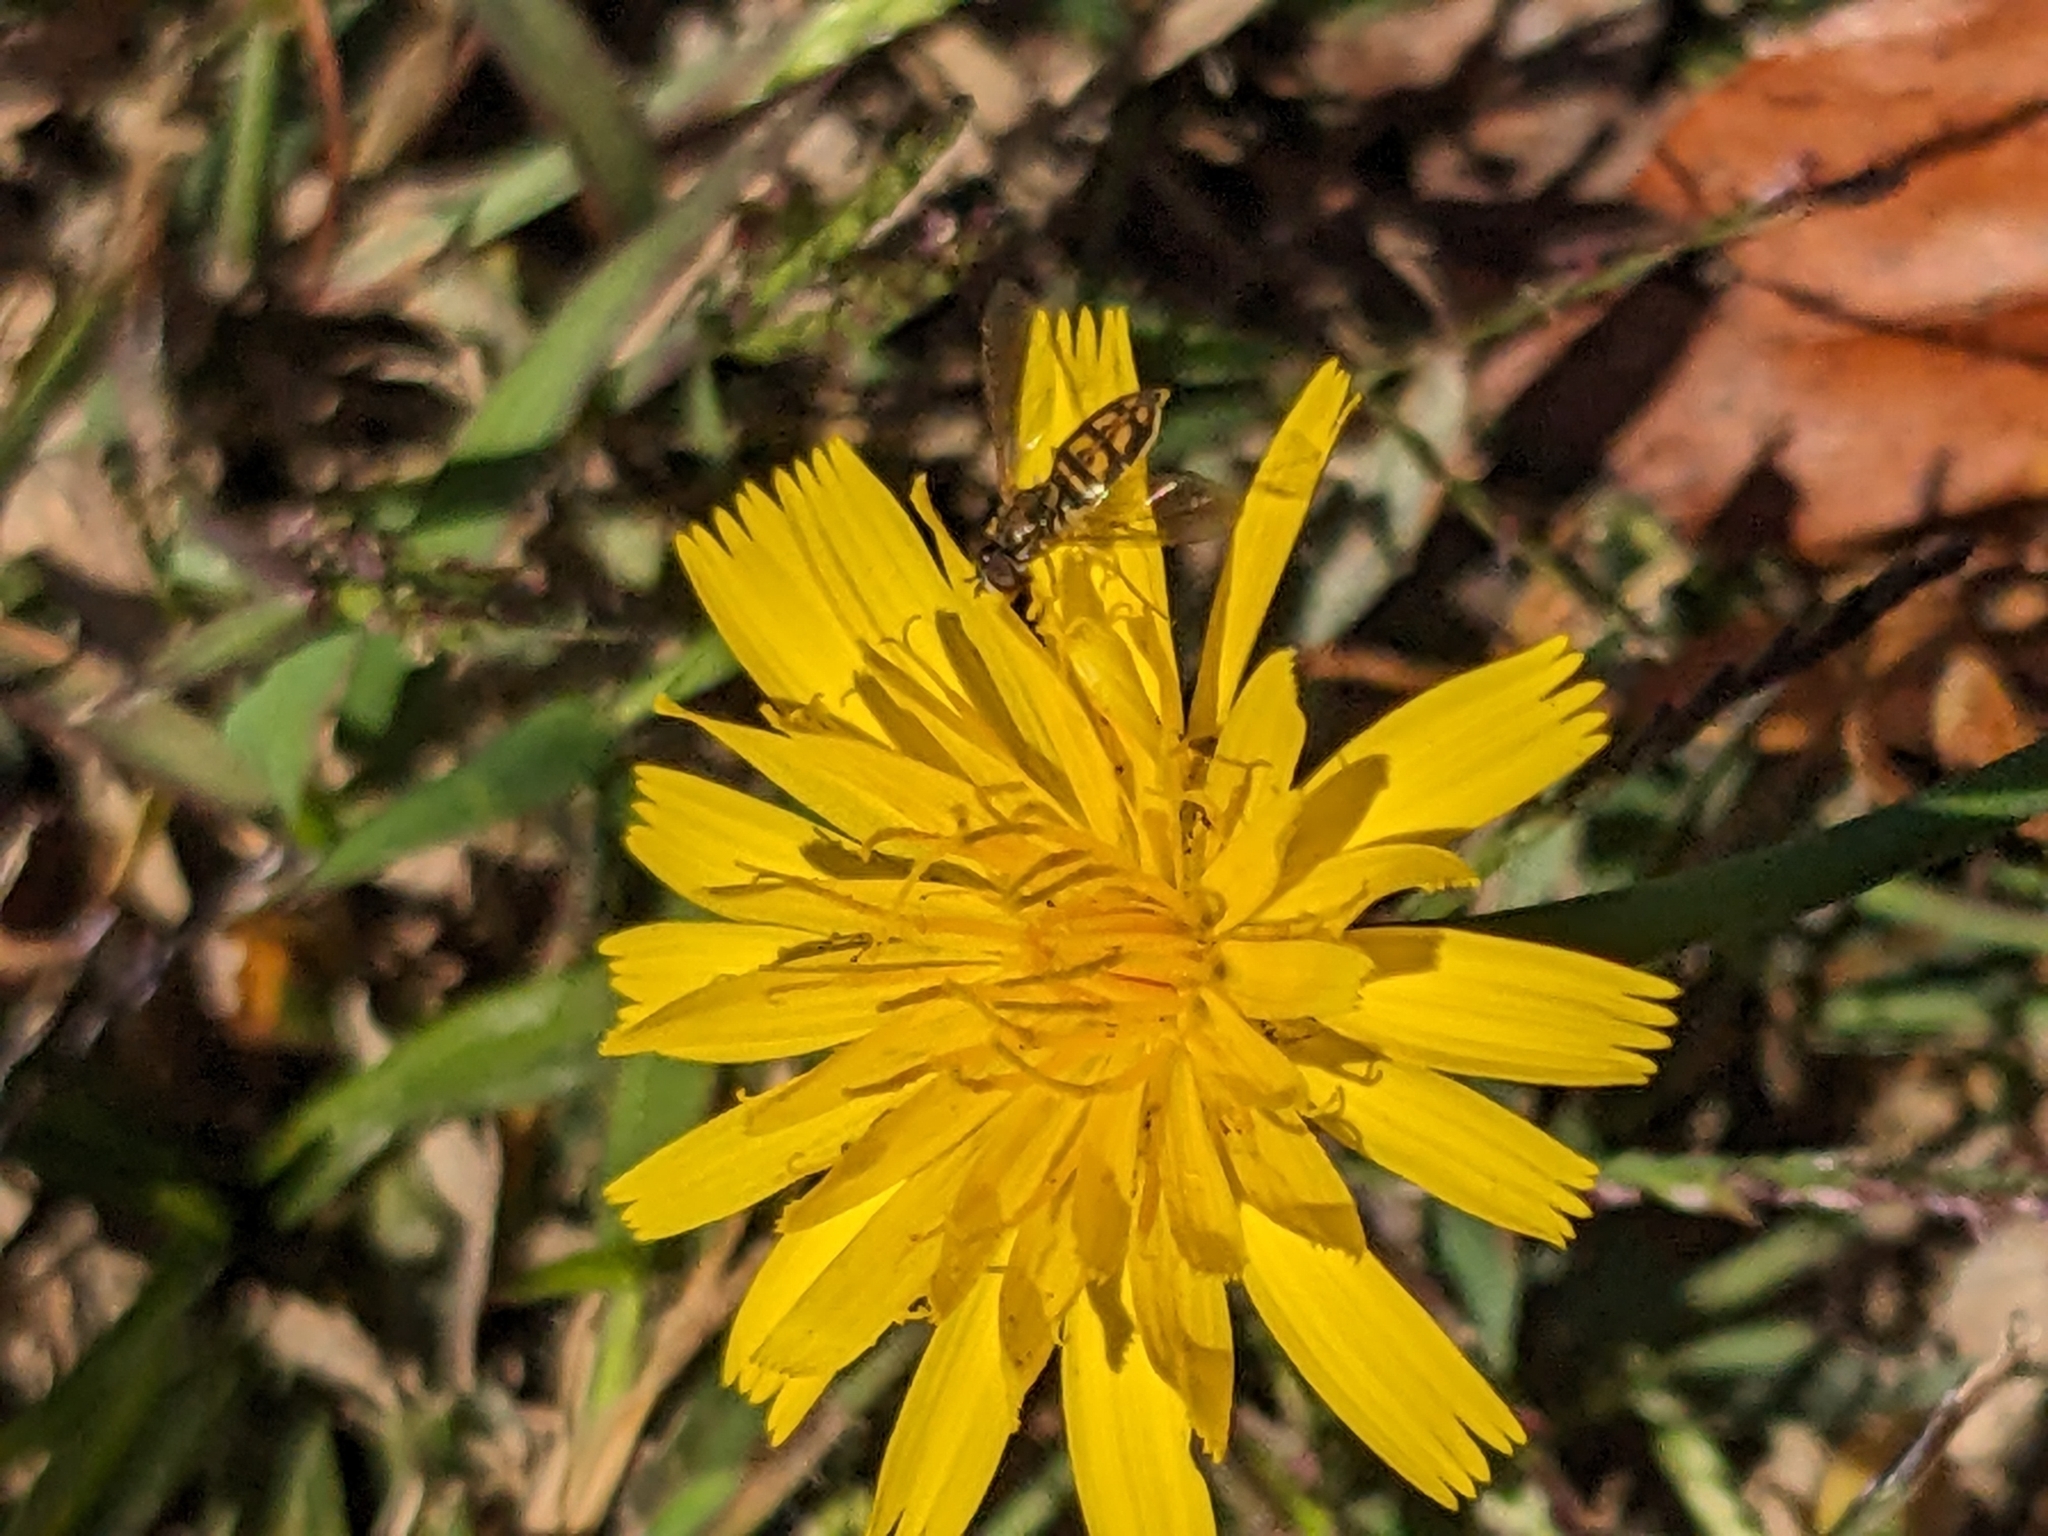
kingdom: Animalia
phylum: Arthropoda
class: Insecta
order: Diptera
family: Syrphidae
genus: Toxomerus
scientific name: Toxomerus marginatus
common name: Syrphid fly
